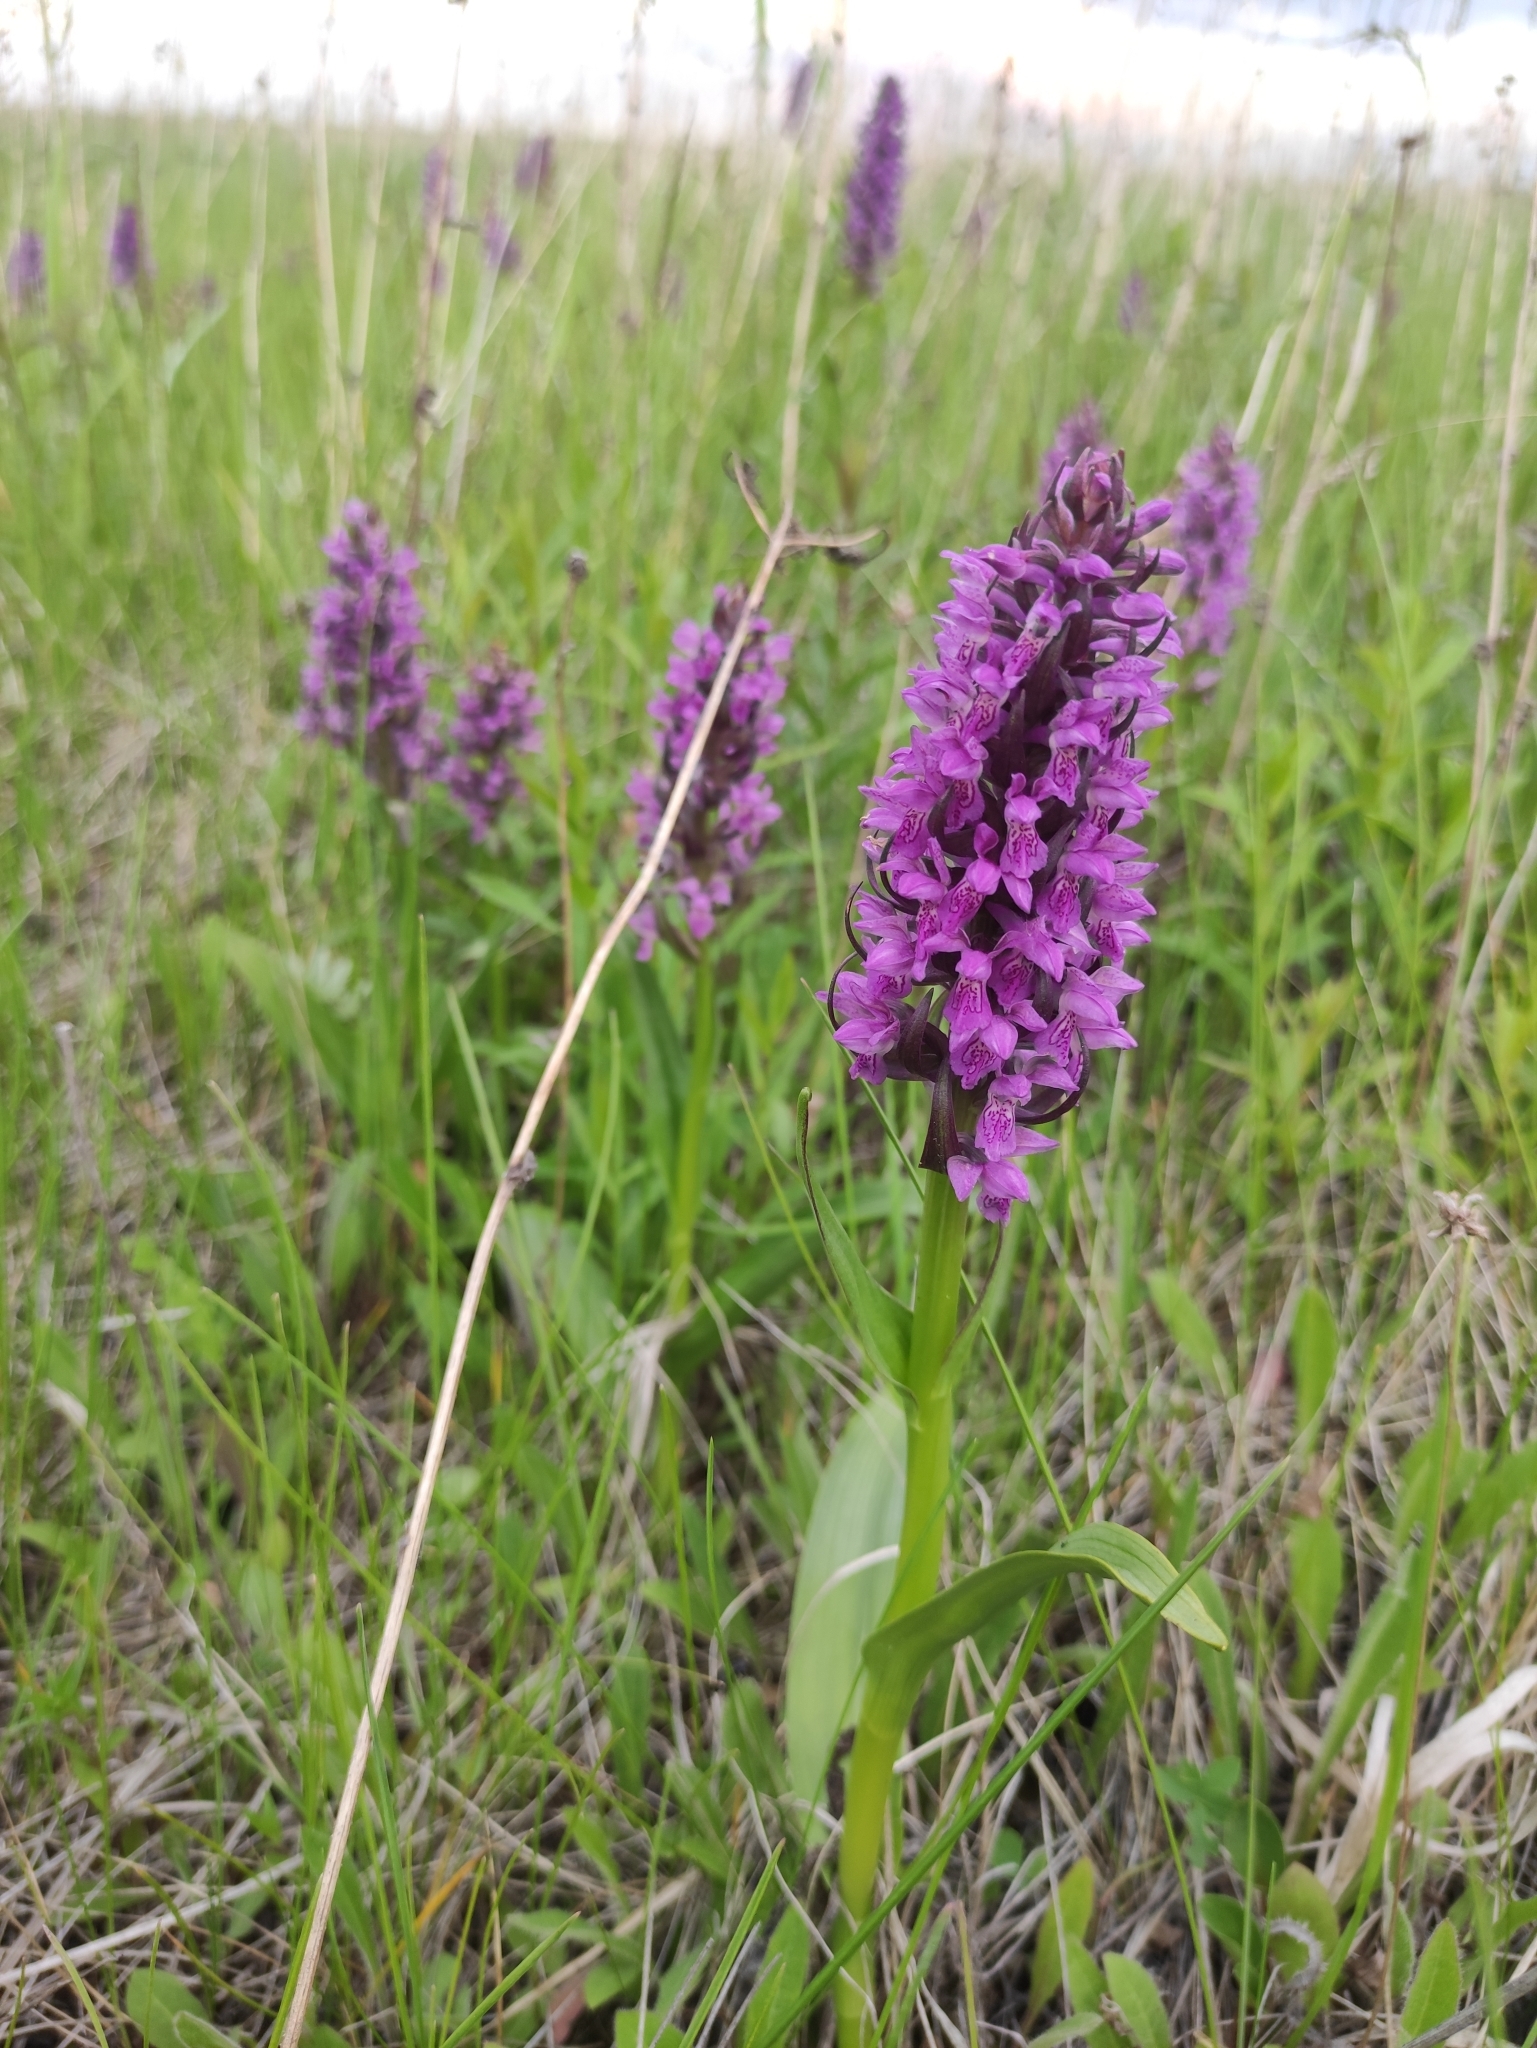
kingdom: Plantae
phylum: Tracheophyta
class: Liliopsida
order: Asparagales
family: Orchidaceae
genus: Dactylorhiza
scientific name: Dactylorhiza incarnata
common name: Early marsh-orchid
